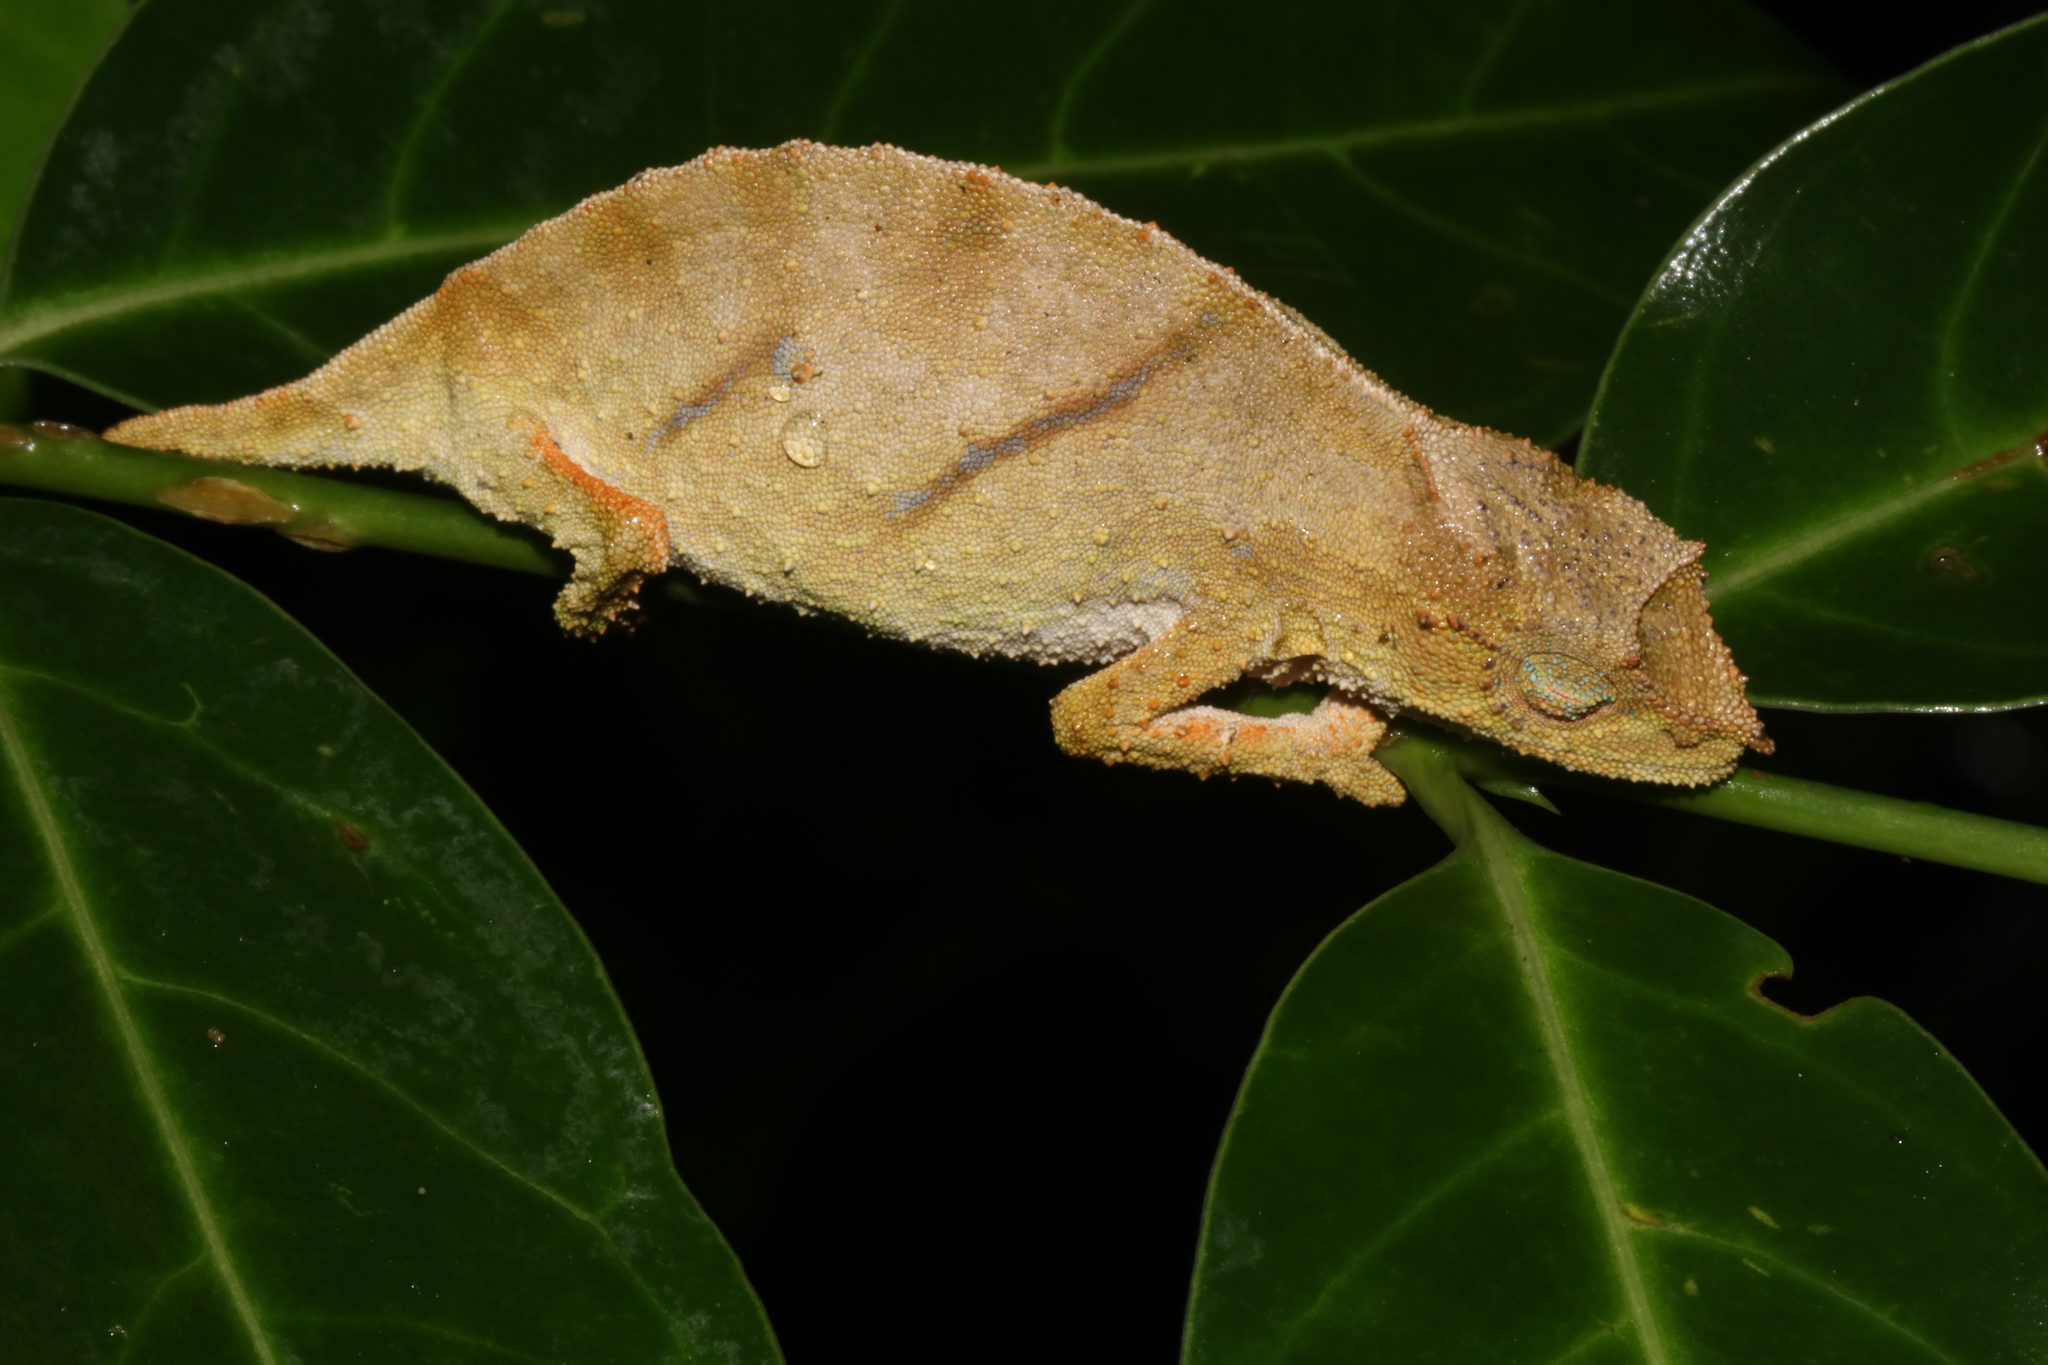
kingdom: Animalia
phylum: Chordata
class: Squamata
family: Chamaeleonidae
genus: Rhampholeon
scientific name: Rhampholeon nchisiensis
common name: South african stumptail chameleon
